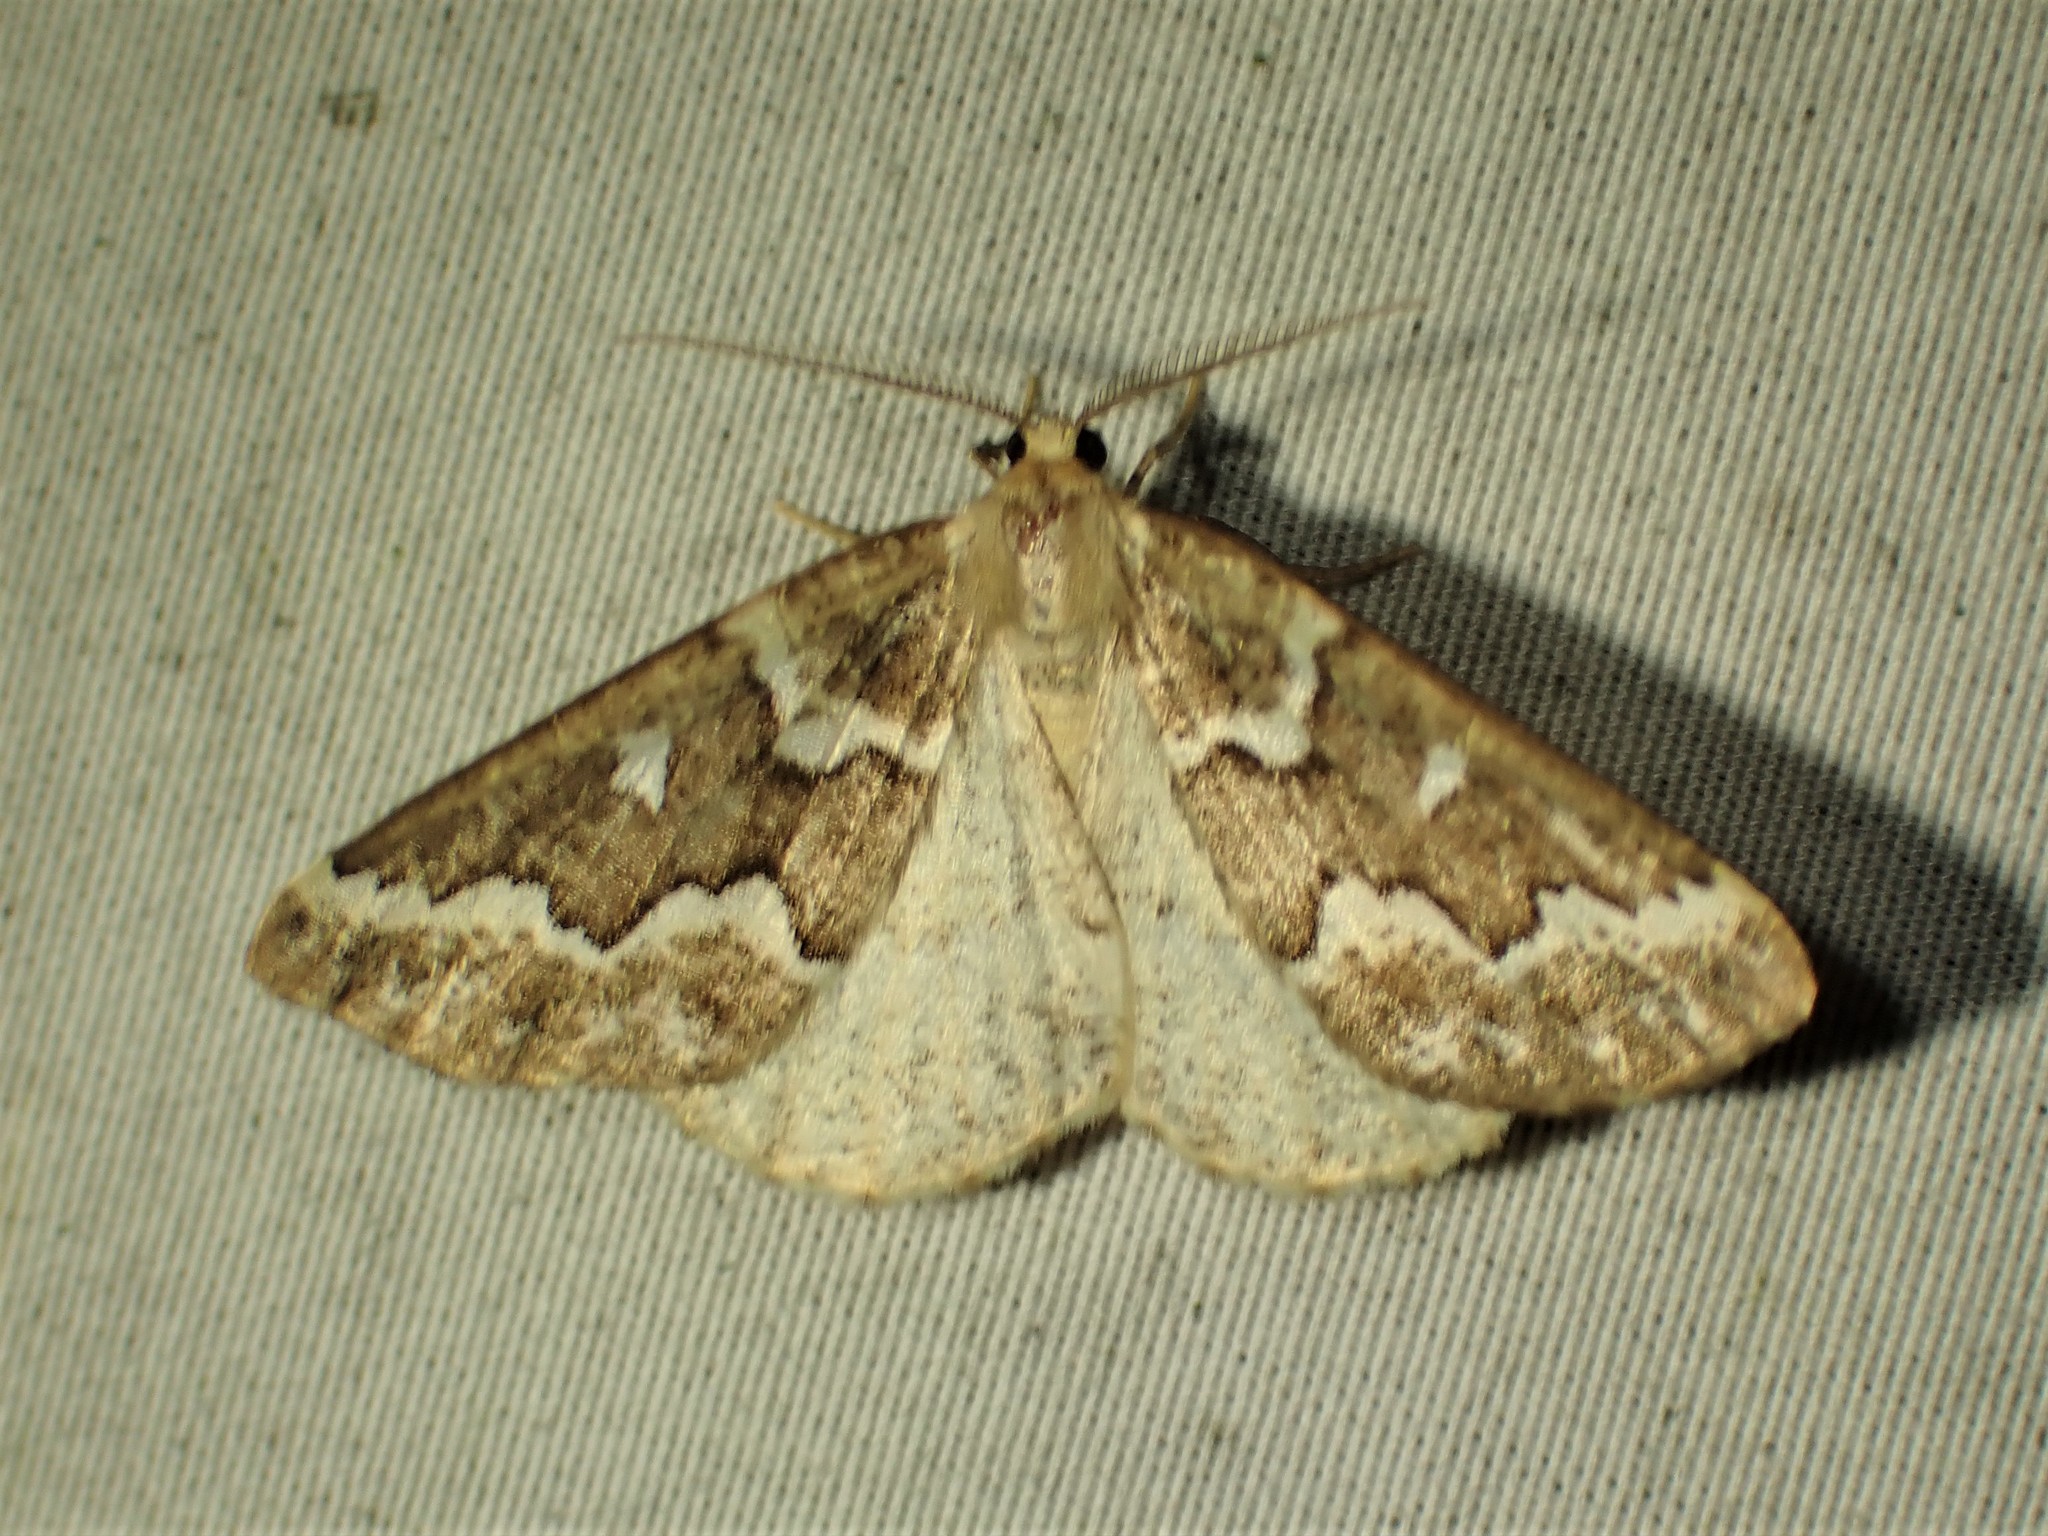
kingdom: Animalia
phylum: Arthropoda
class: Insecta
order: Lepidoptera
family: Geometridae
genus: Caripeta
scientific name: Caripeta divisata
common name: Gray spruce looper
